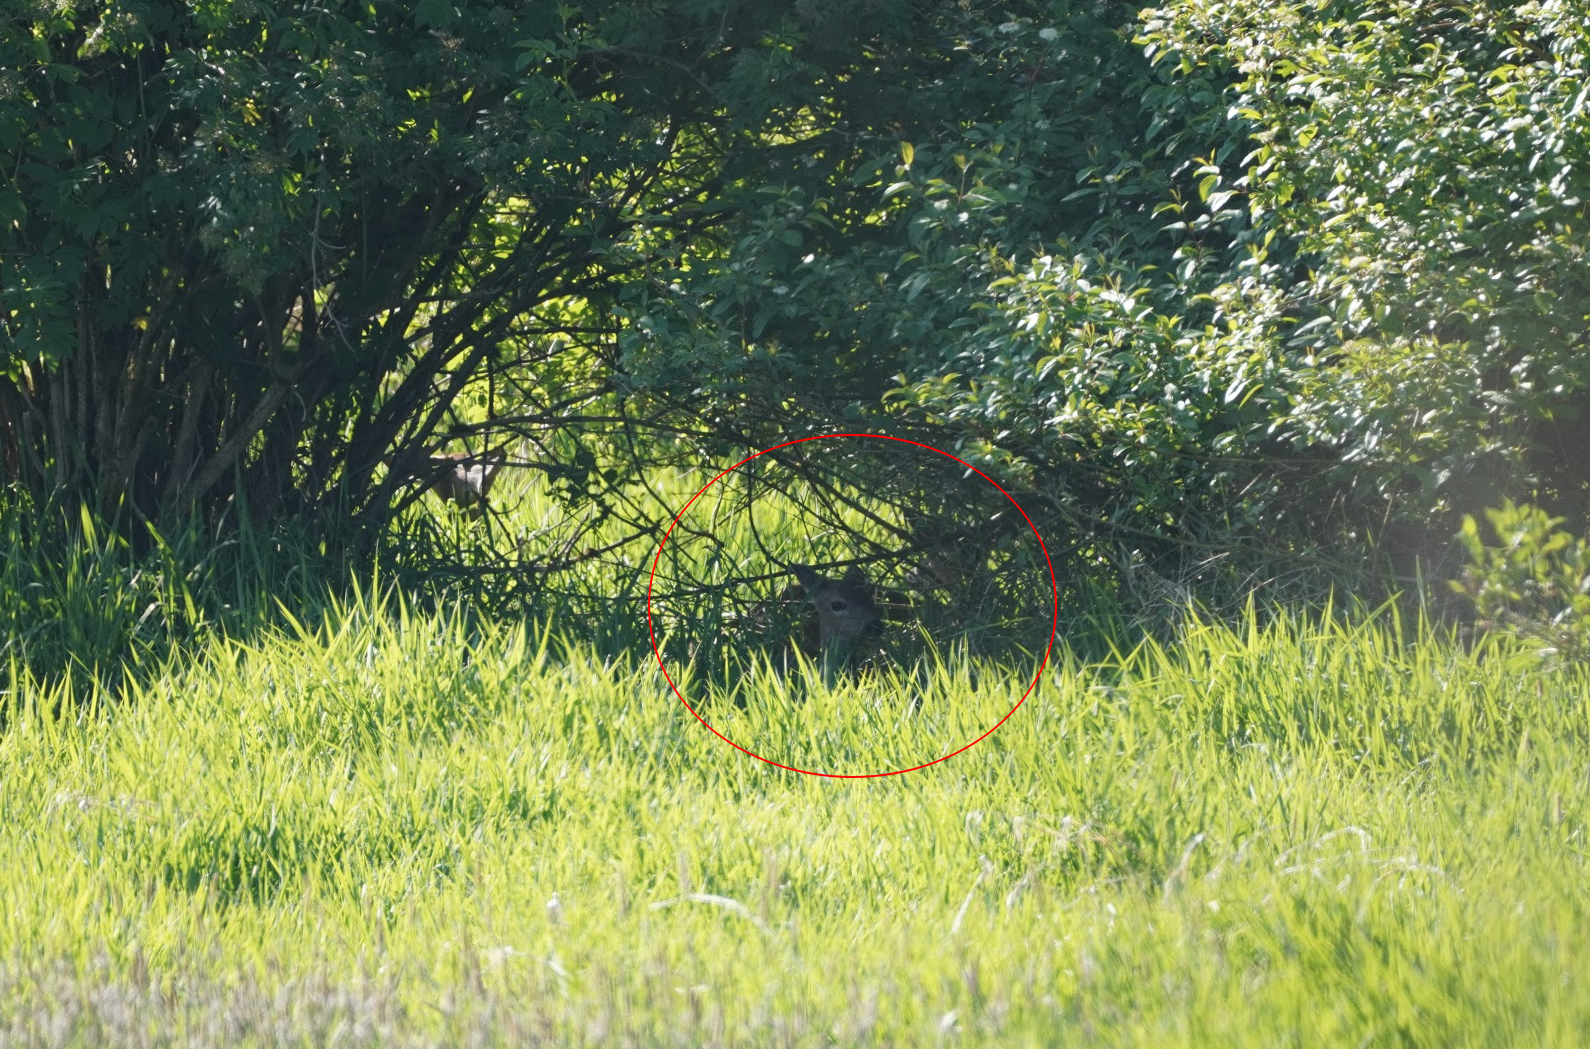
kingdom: Animalia
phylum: Chordata
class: Mammalia
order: Artiodactyla
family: Cervidae
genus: Odocoileus
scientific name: Odocoileus hemionus
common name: Mule deer
